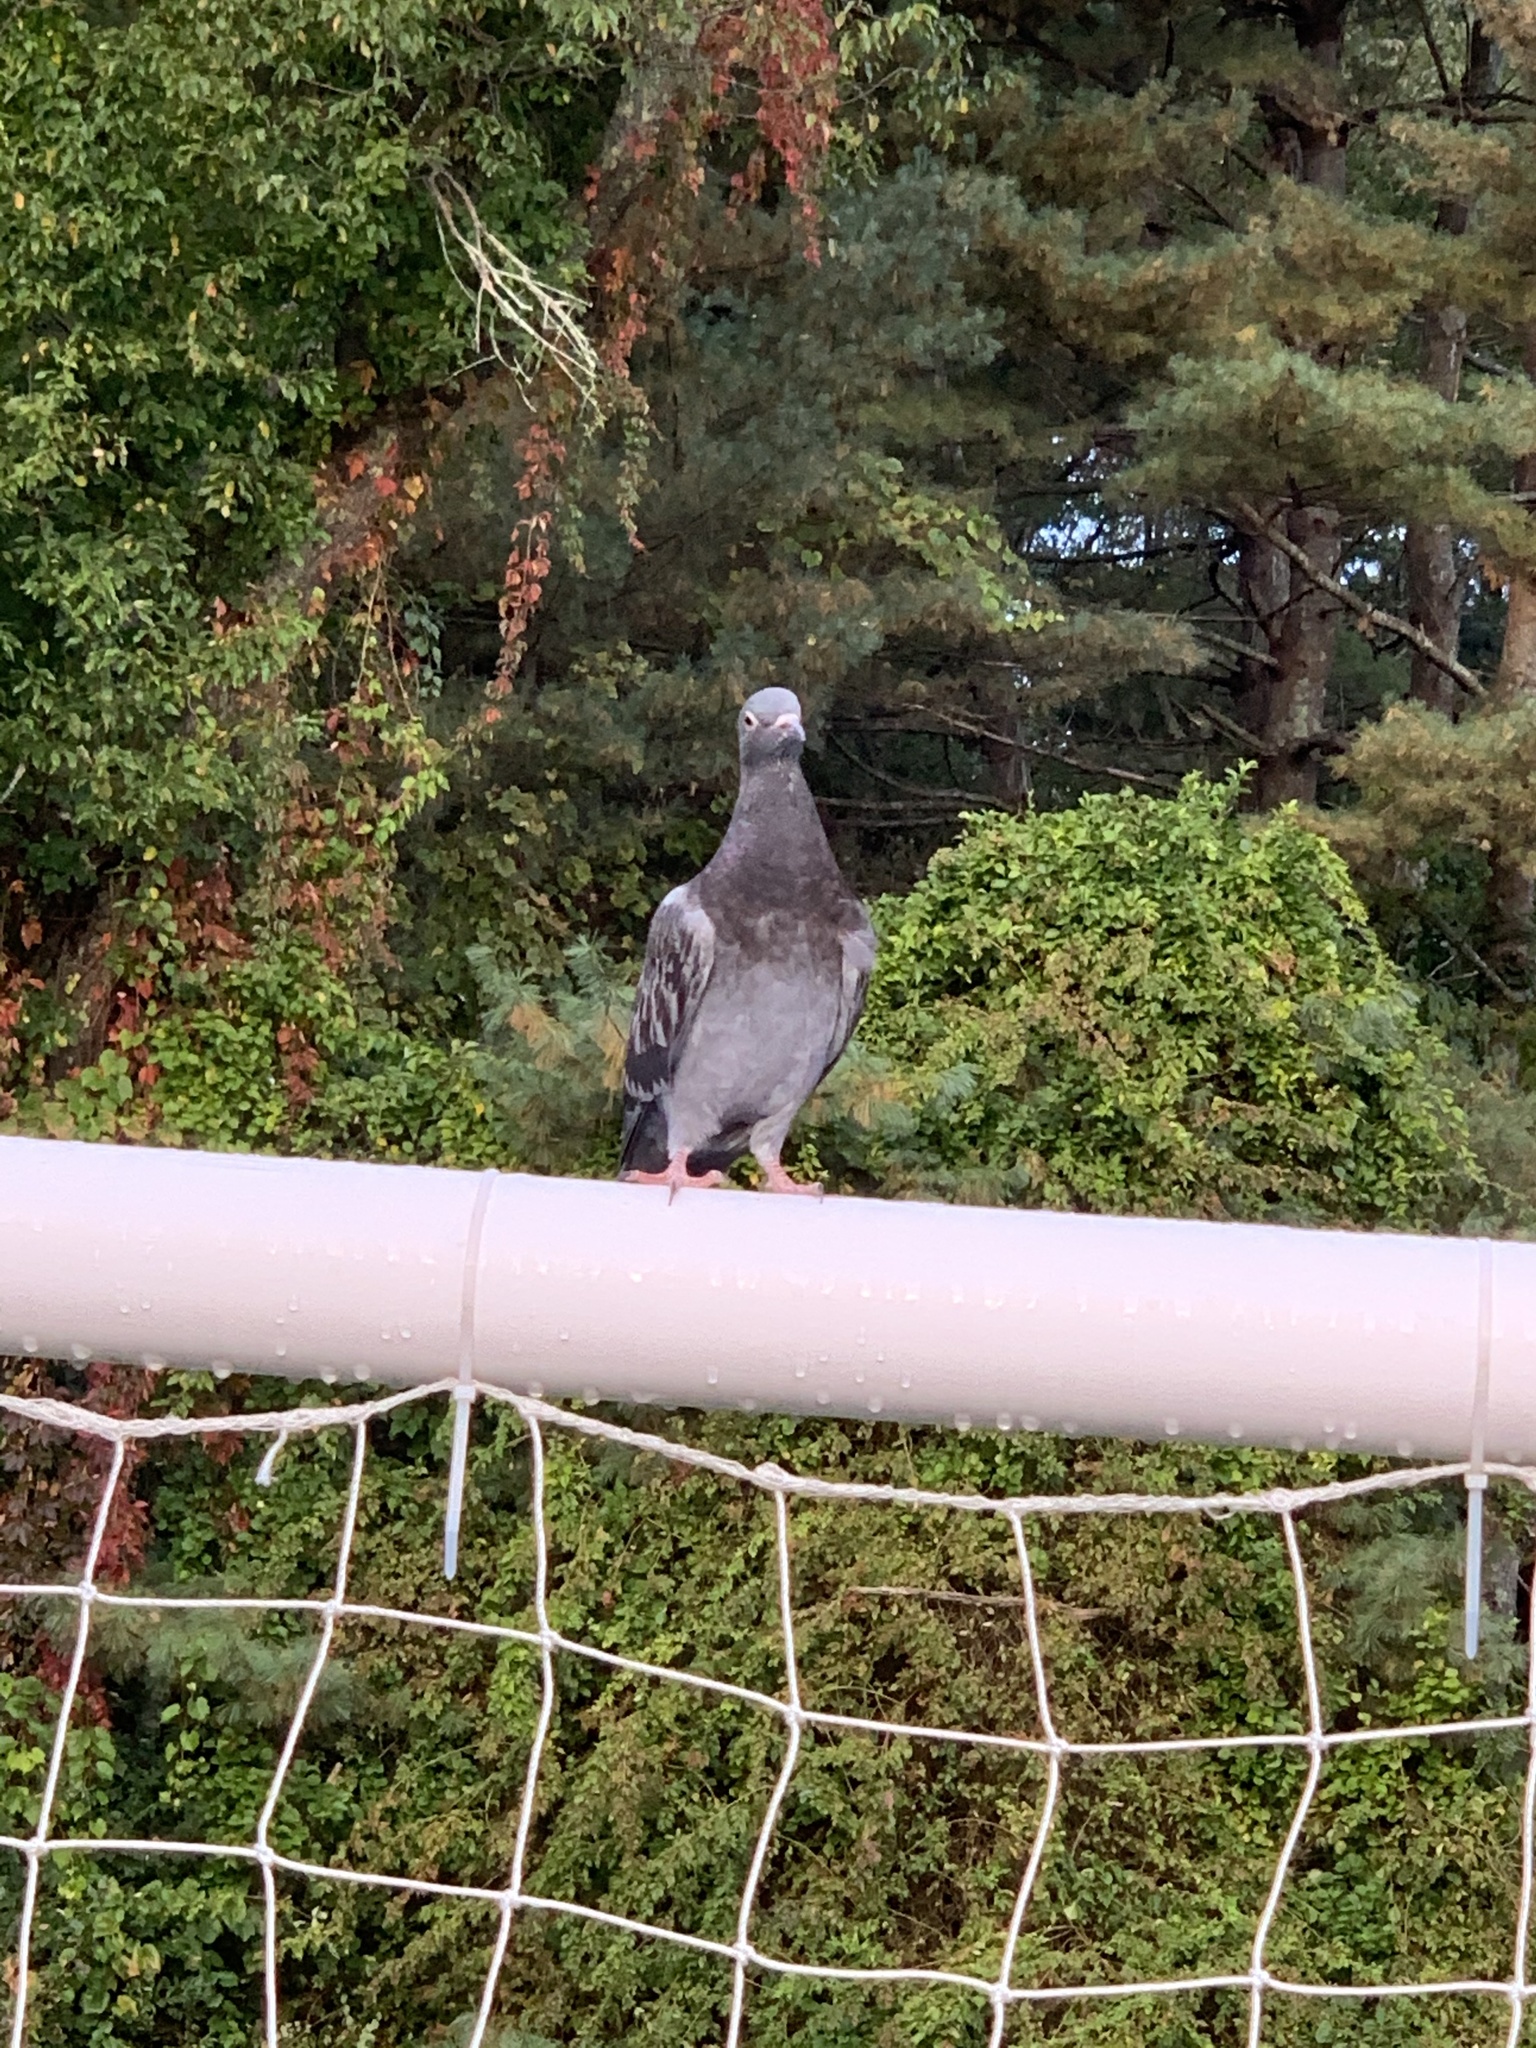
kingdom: Animalia
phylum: Chordata
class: Aves
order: Columbiformes
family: Columbidae
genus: Columba
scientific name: Columba livia
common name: Rock pigeon
